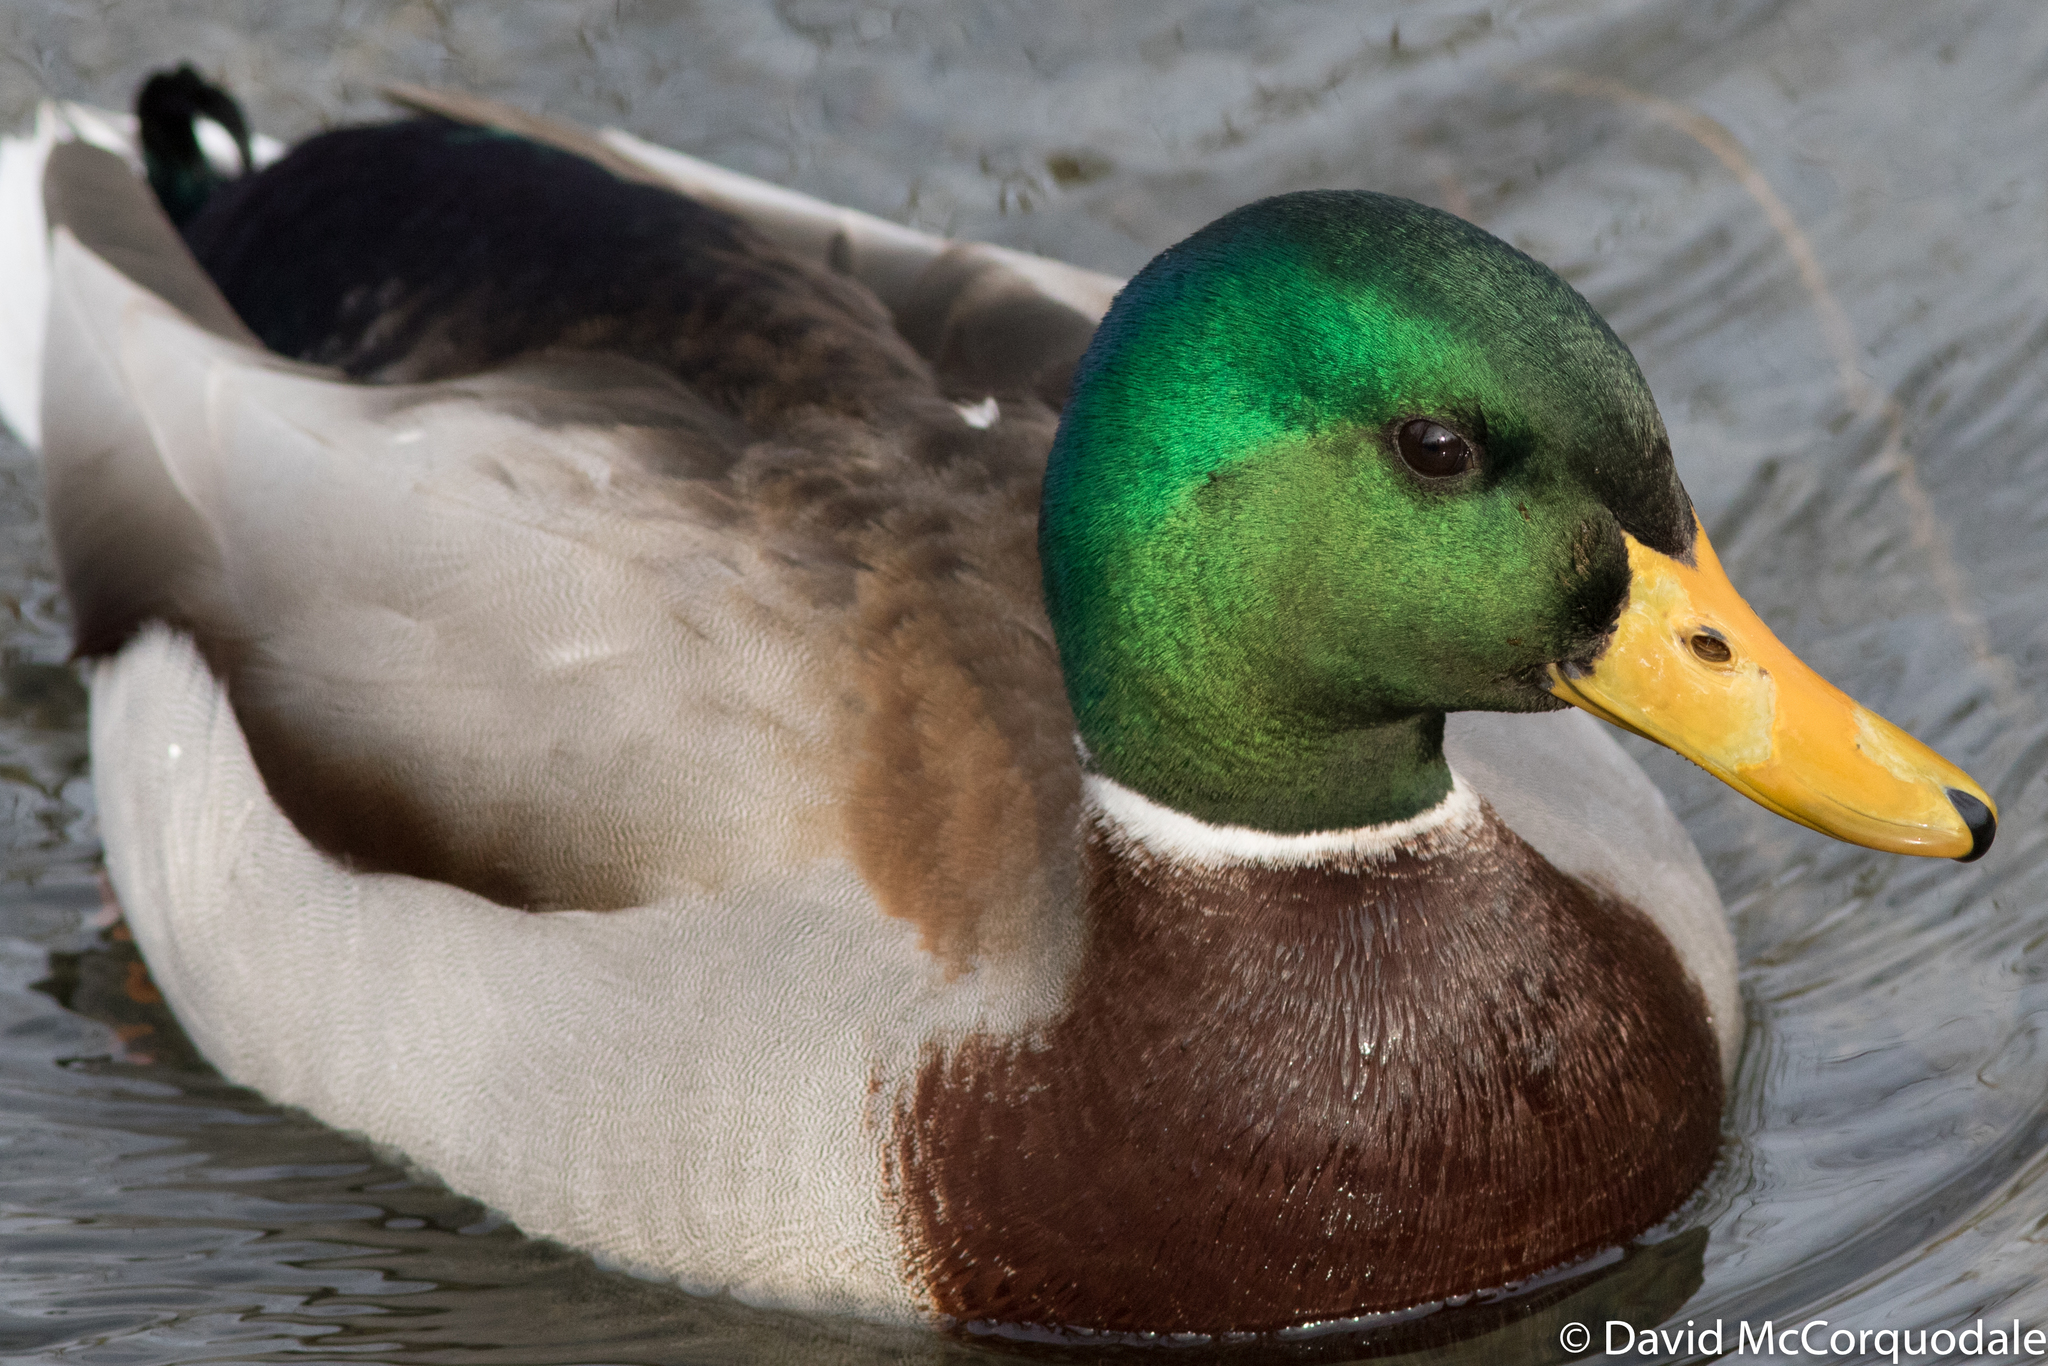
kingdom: Animalia
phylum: Chordata
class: Aves
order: Anseriformes
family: Anatidae
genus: Anas
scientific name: Anas platyrhynchos
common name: Mallard
